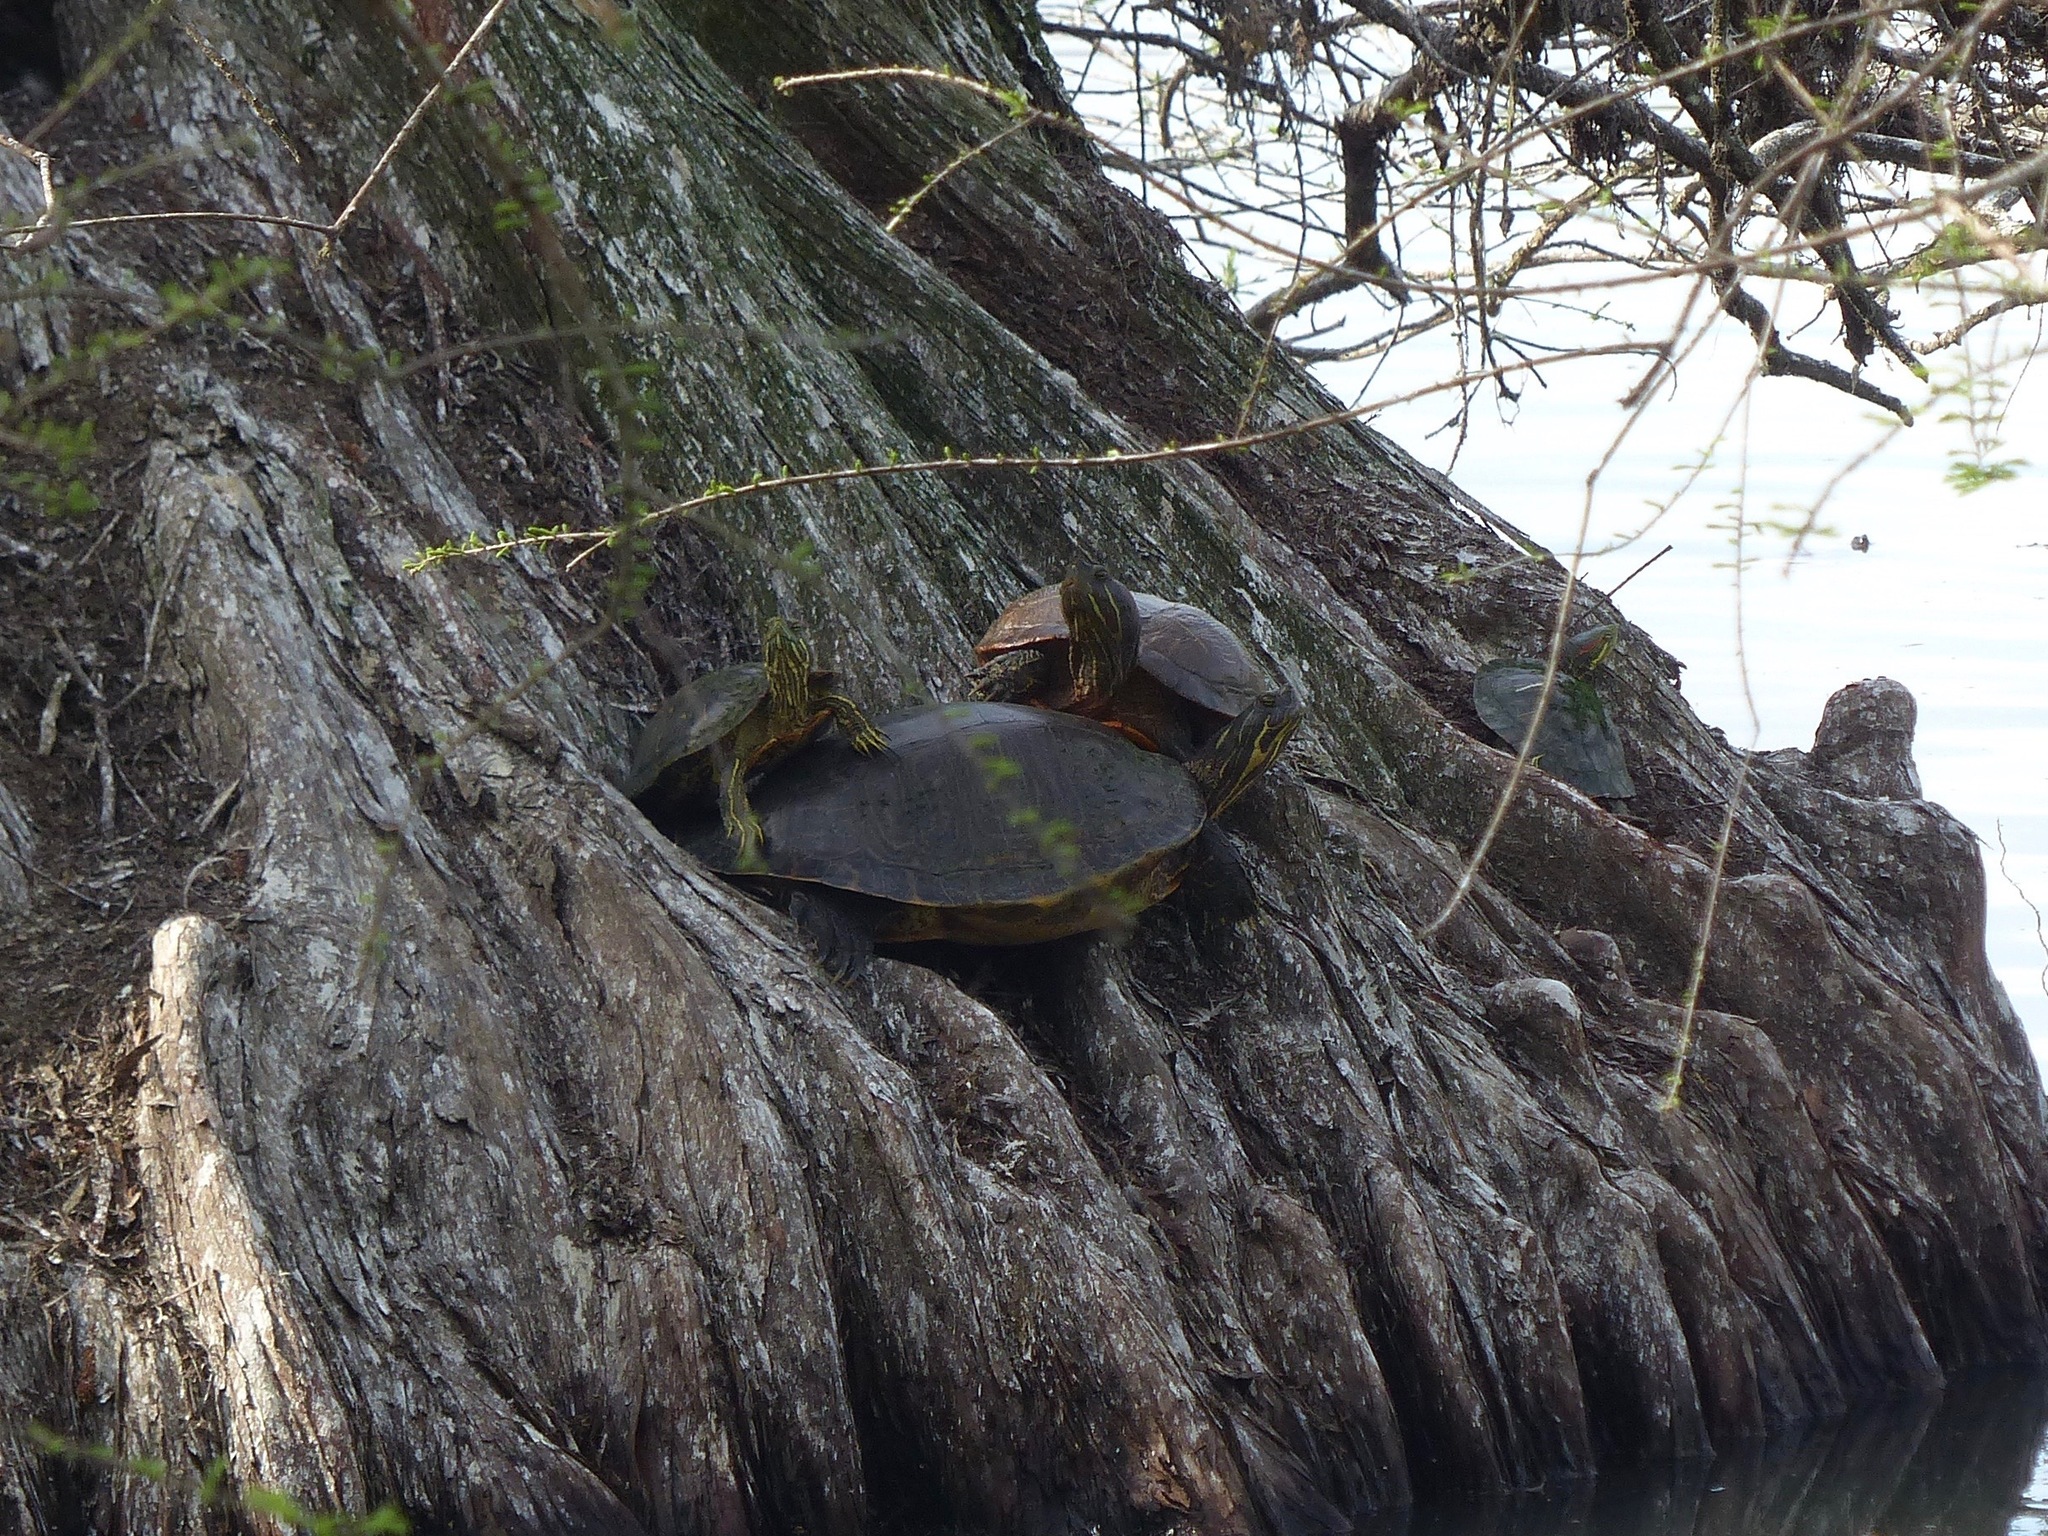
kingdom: Animalia
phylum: Chordata
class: Testudines
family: Emydidae
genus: Pseudemys
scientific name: Pseudemys concinna
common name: Eastern river cooter
